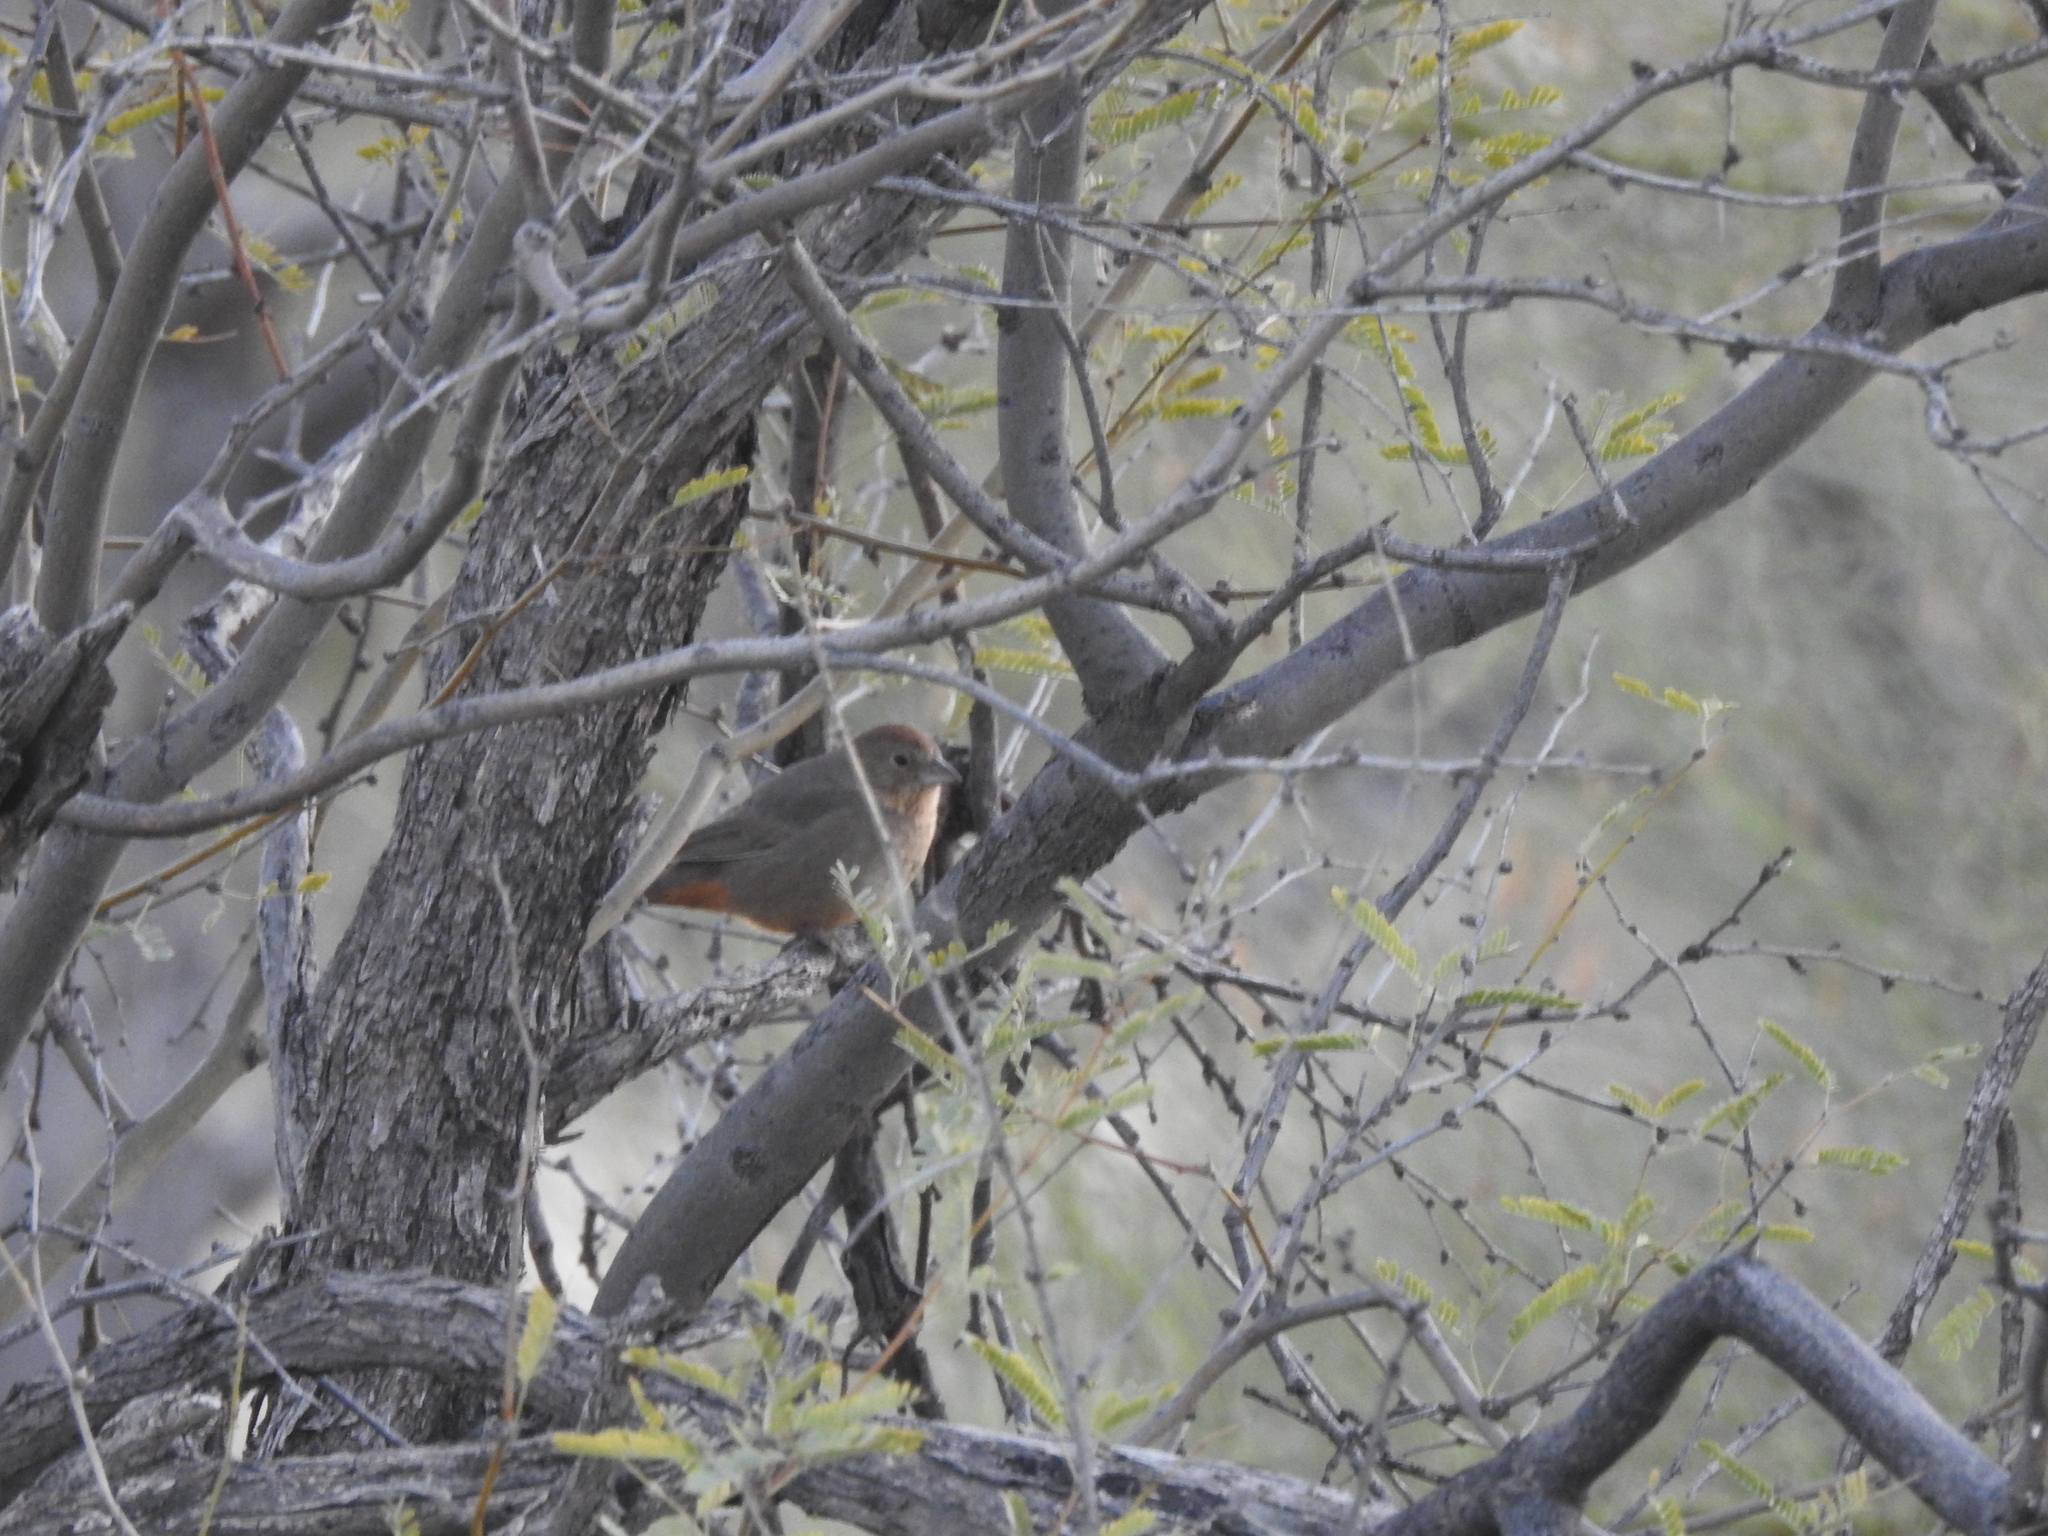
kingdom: Animalia
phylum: Chordata
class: Aves
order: Passeriformes
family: Passerellidae
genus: Melozone
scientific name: Melozone fusca
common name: Canyon towhee
